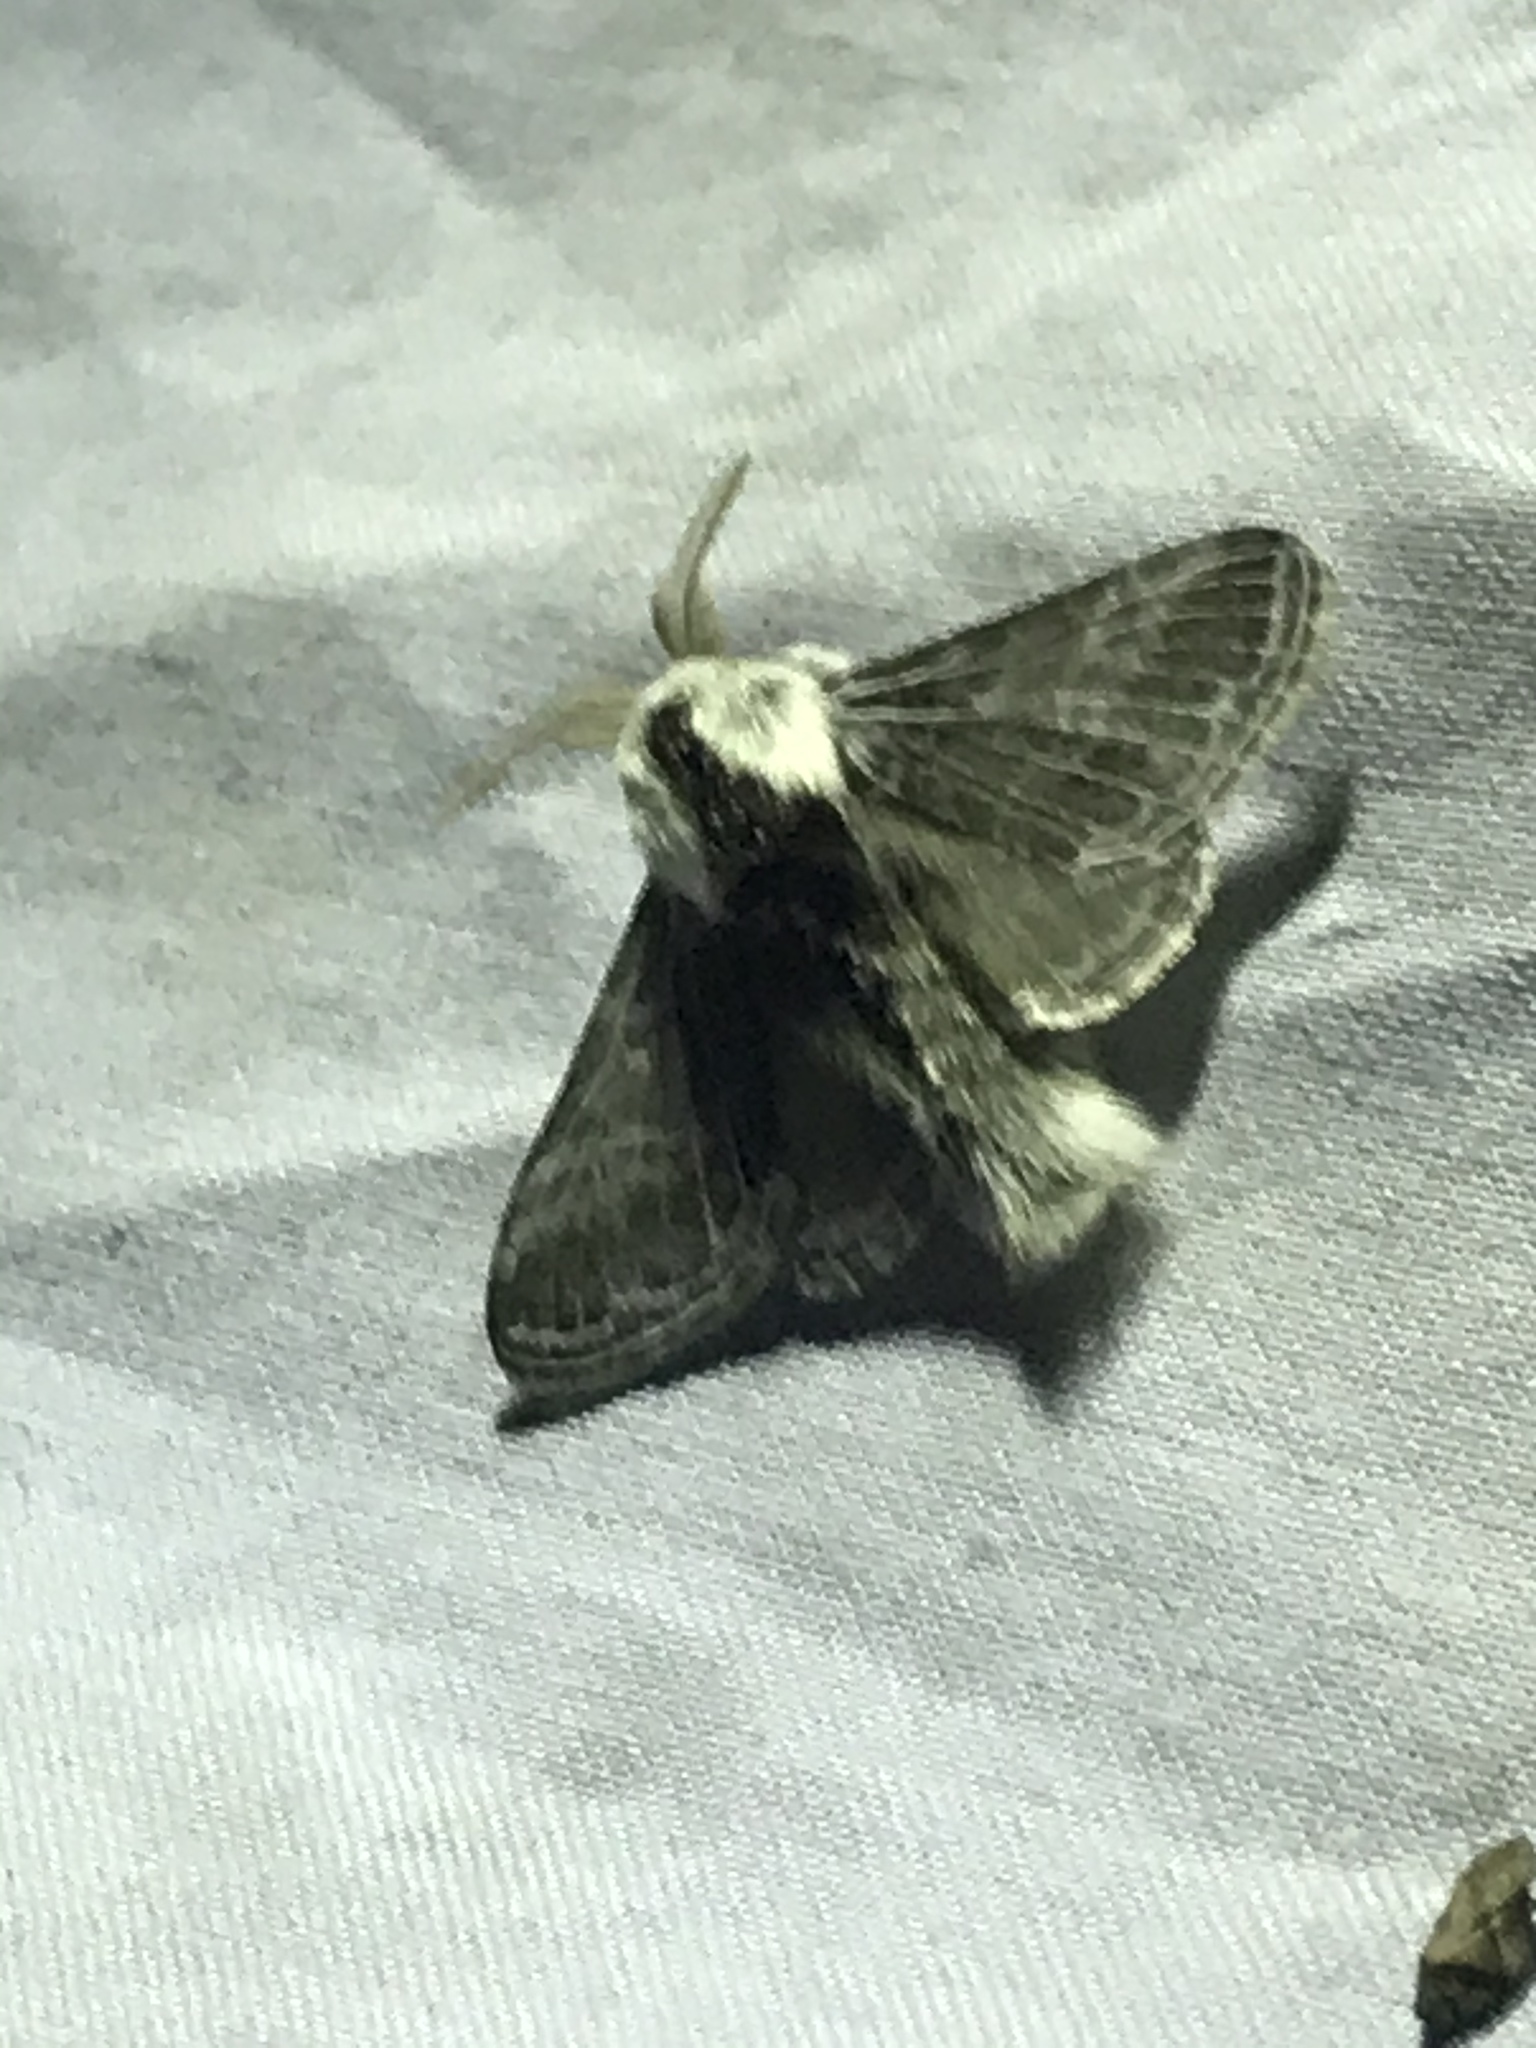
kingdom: Animalia
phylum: Arthropoda
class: Insecta
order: Lepidoptera
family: Lasiocampidae
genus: Tolype
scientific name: Tolype velleda
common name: Large tolype moth
